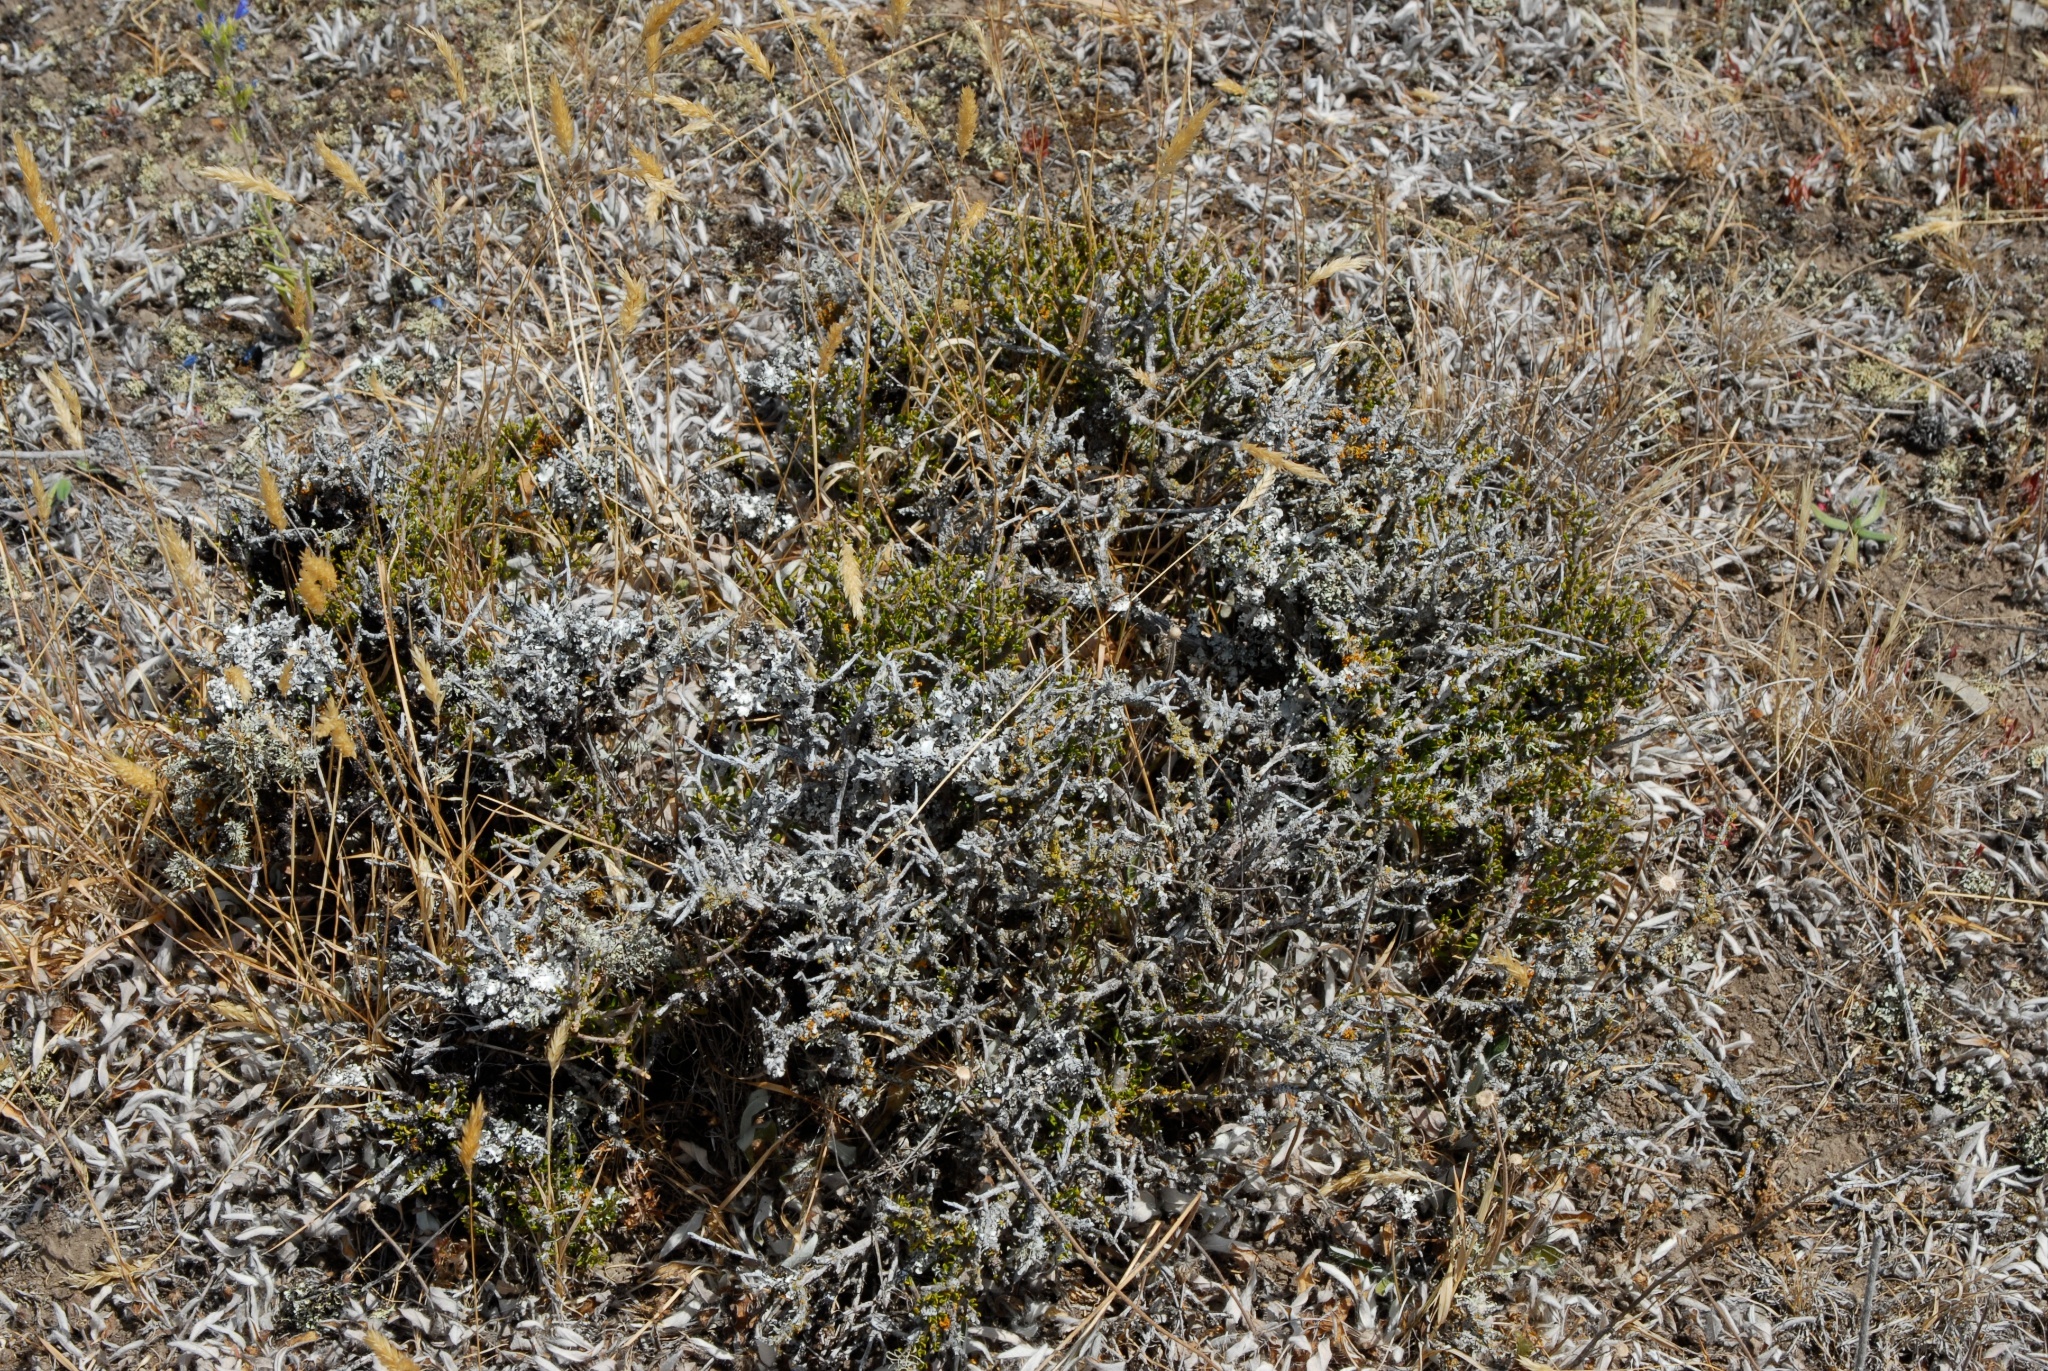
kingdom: Plantae
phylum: Tracheophyta
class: Magnoliopsida
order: Malpighiales
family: Violaceae
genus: Melicytus
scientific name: Melicytus alpinus
